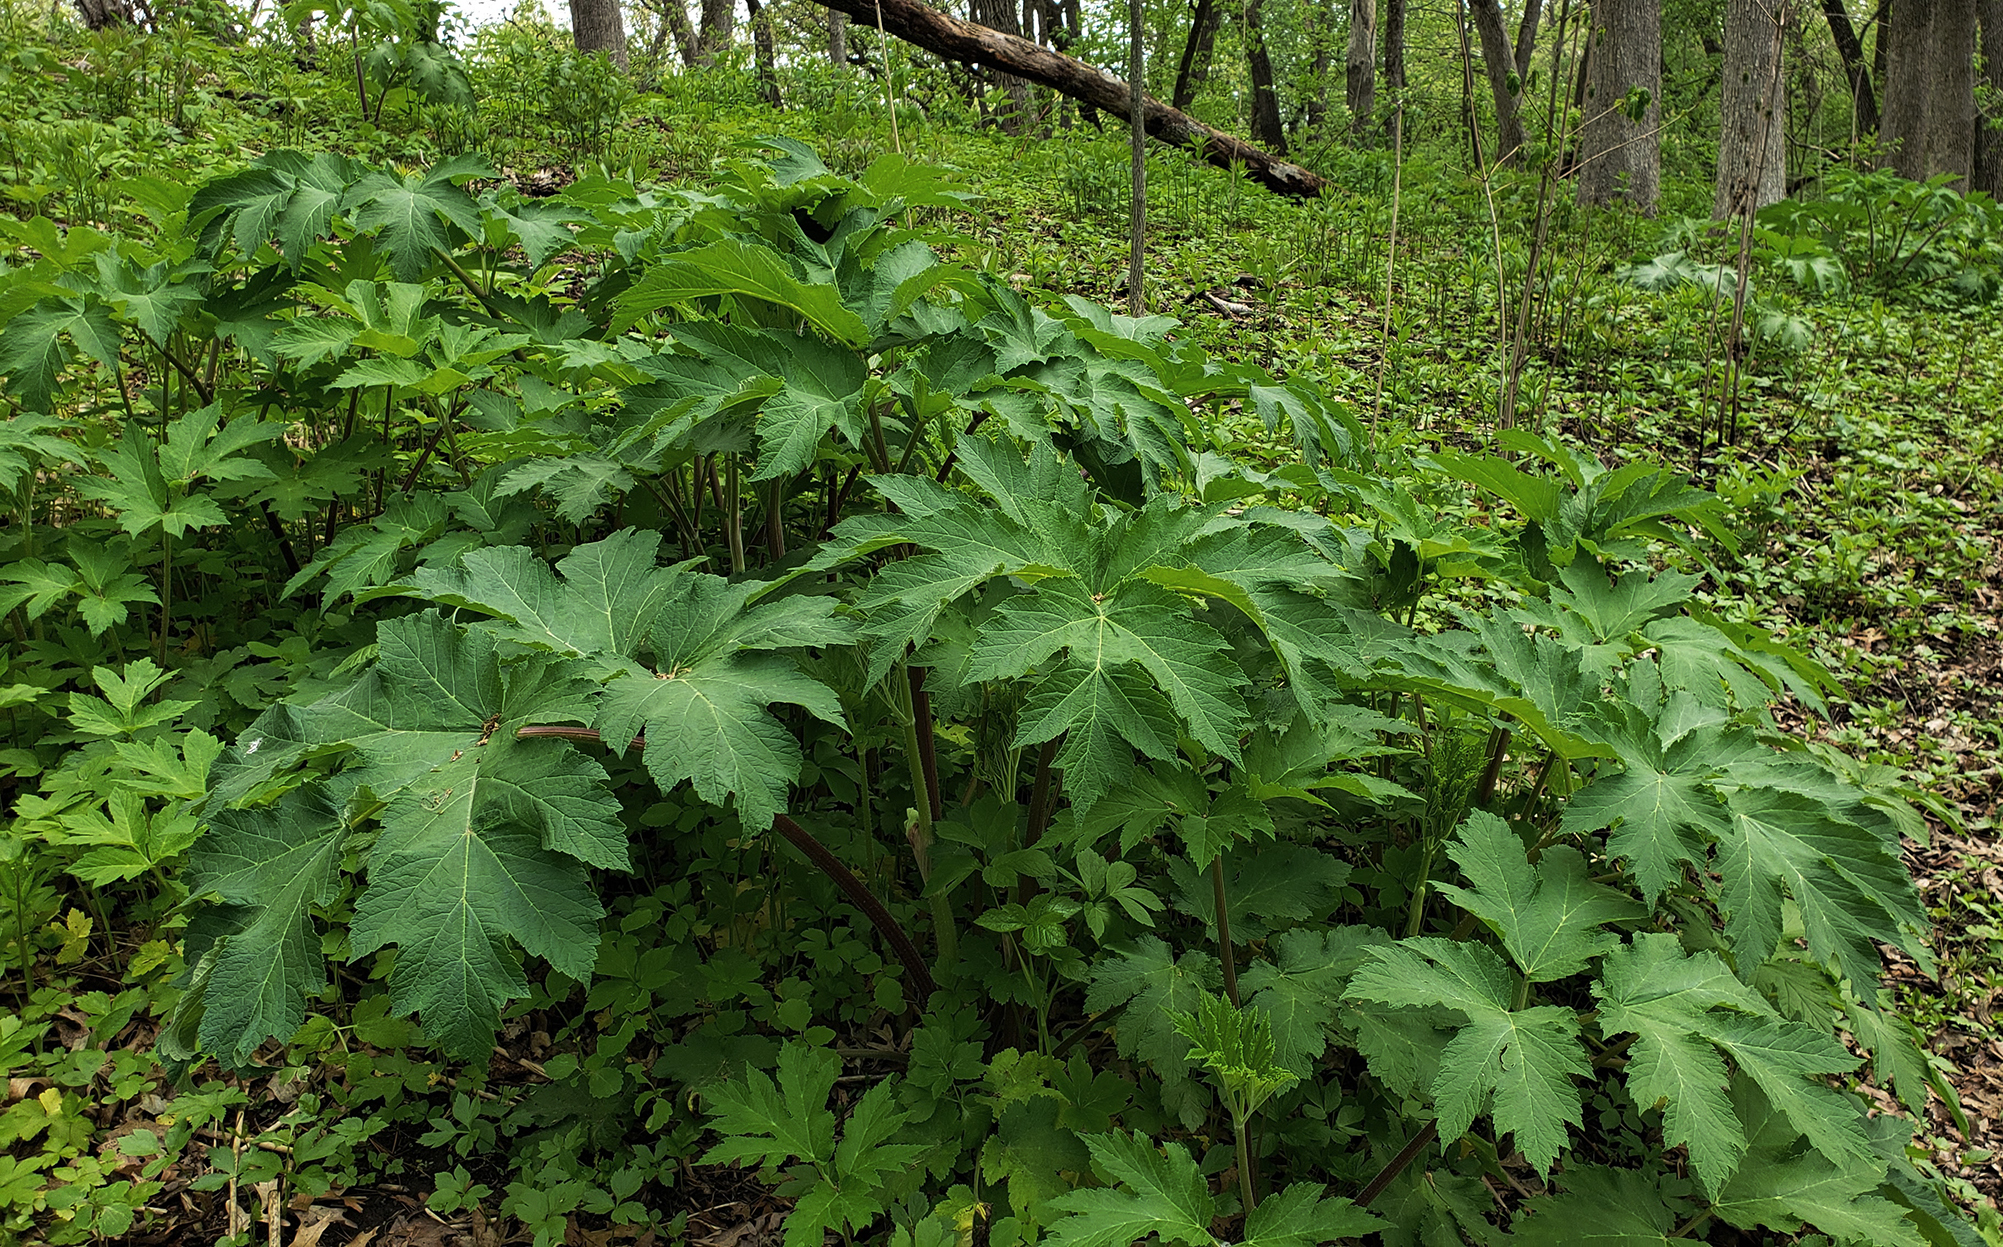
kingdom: Plantae
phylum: Tracheophyta
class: Magnoliopsida
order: Apiales
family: Apiaceae
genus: Heracleum
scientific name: Heracleum maximum
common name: American cow parsnip
